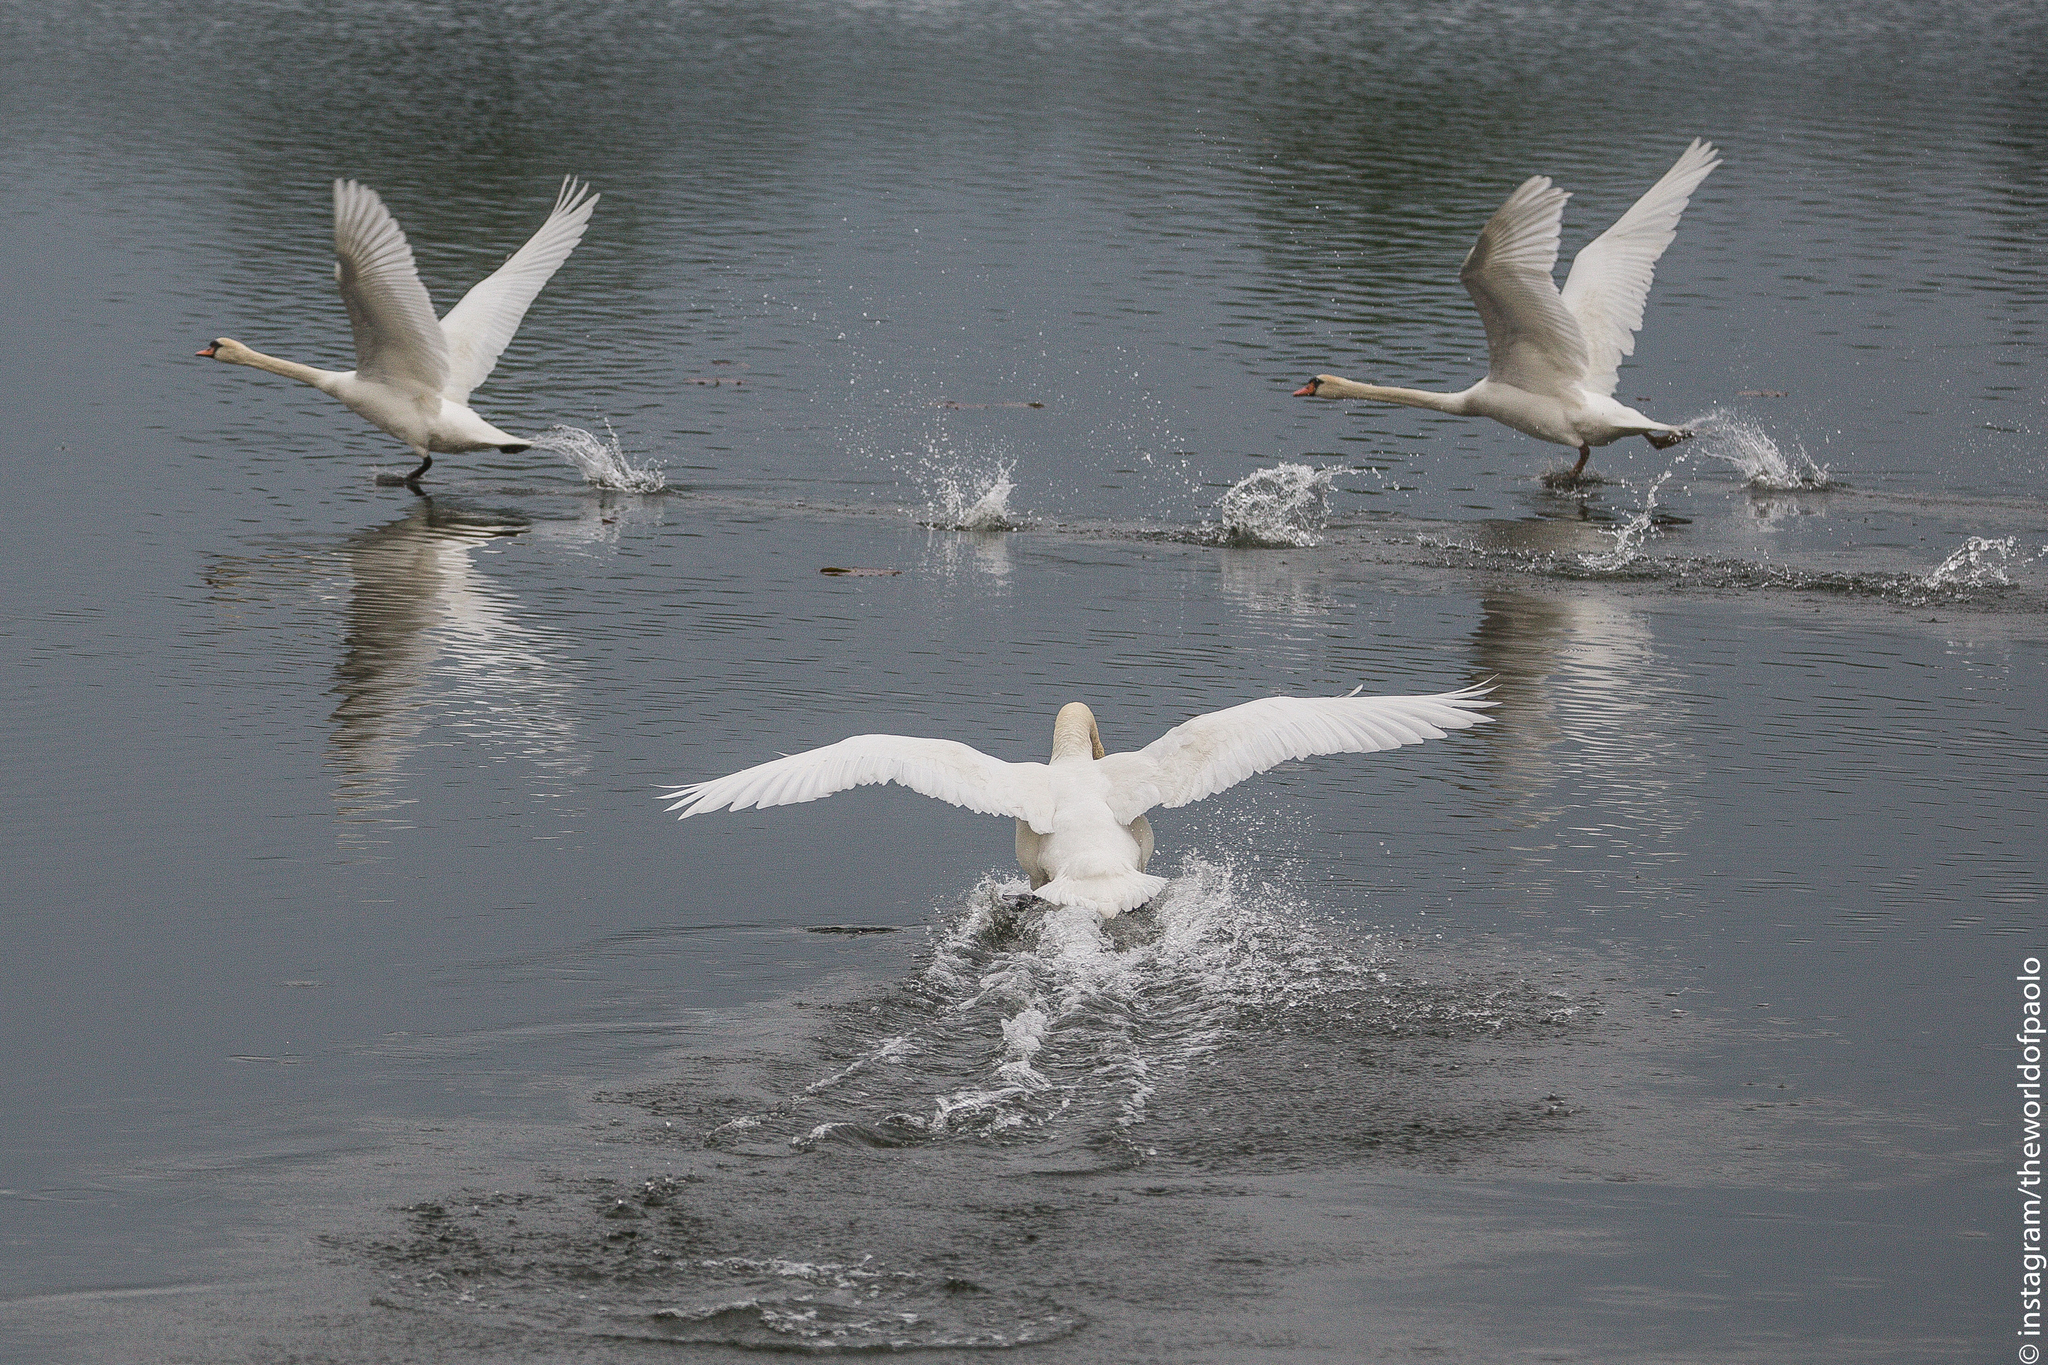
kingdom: Animalia
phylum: Chordata
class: Aves
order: Anseriformes
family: Anatidae
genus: Cygnus
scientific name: Cygnus olor
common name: Mute swan
